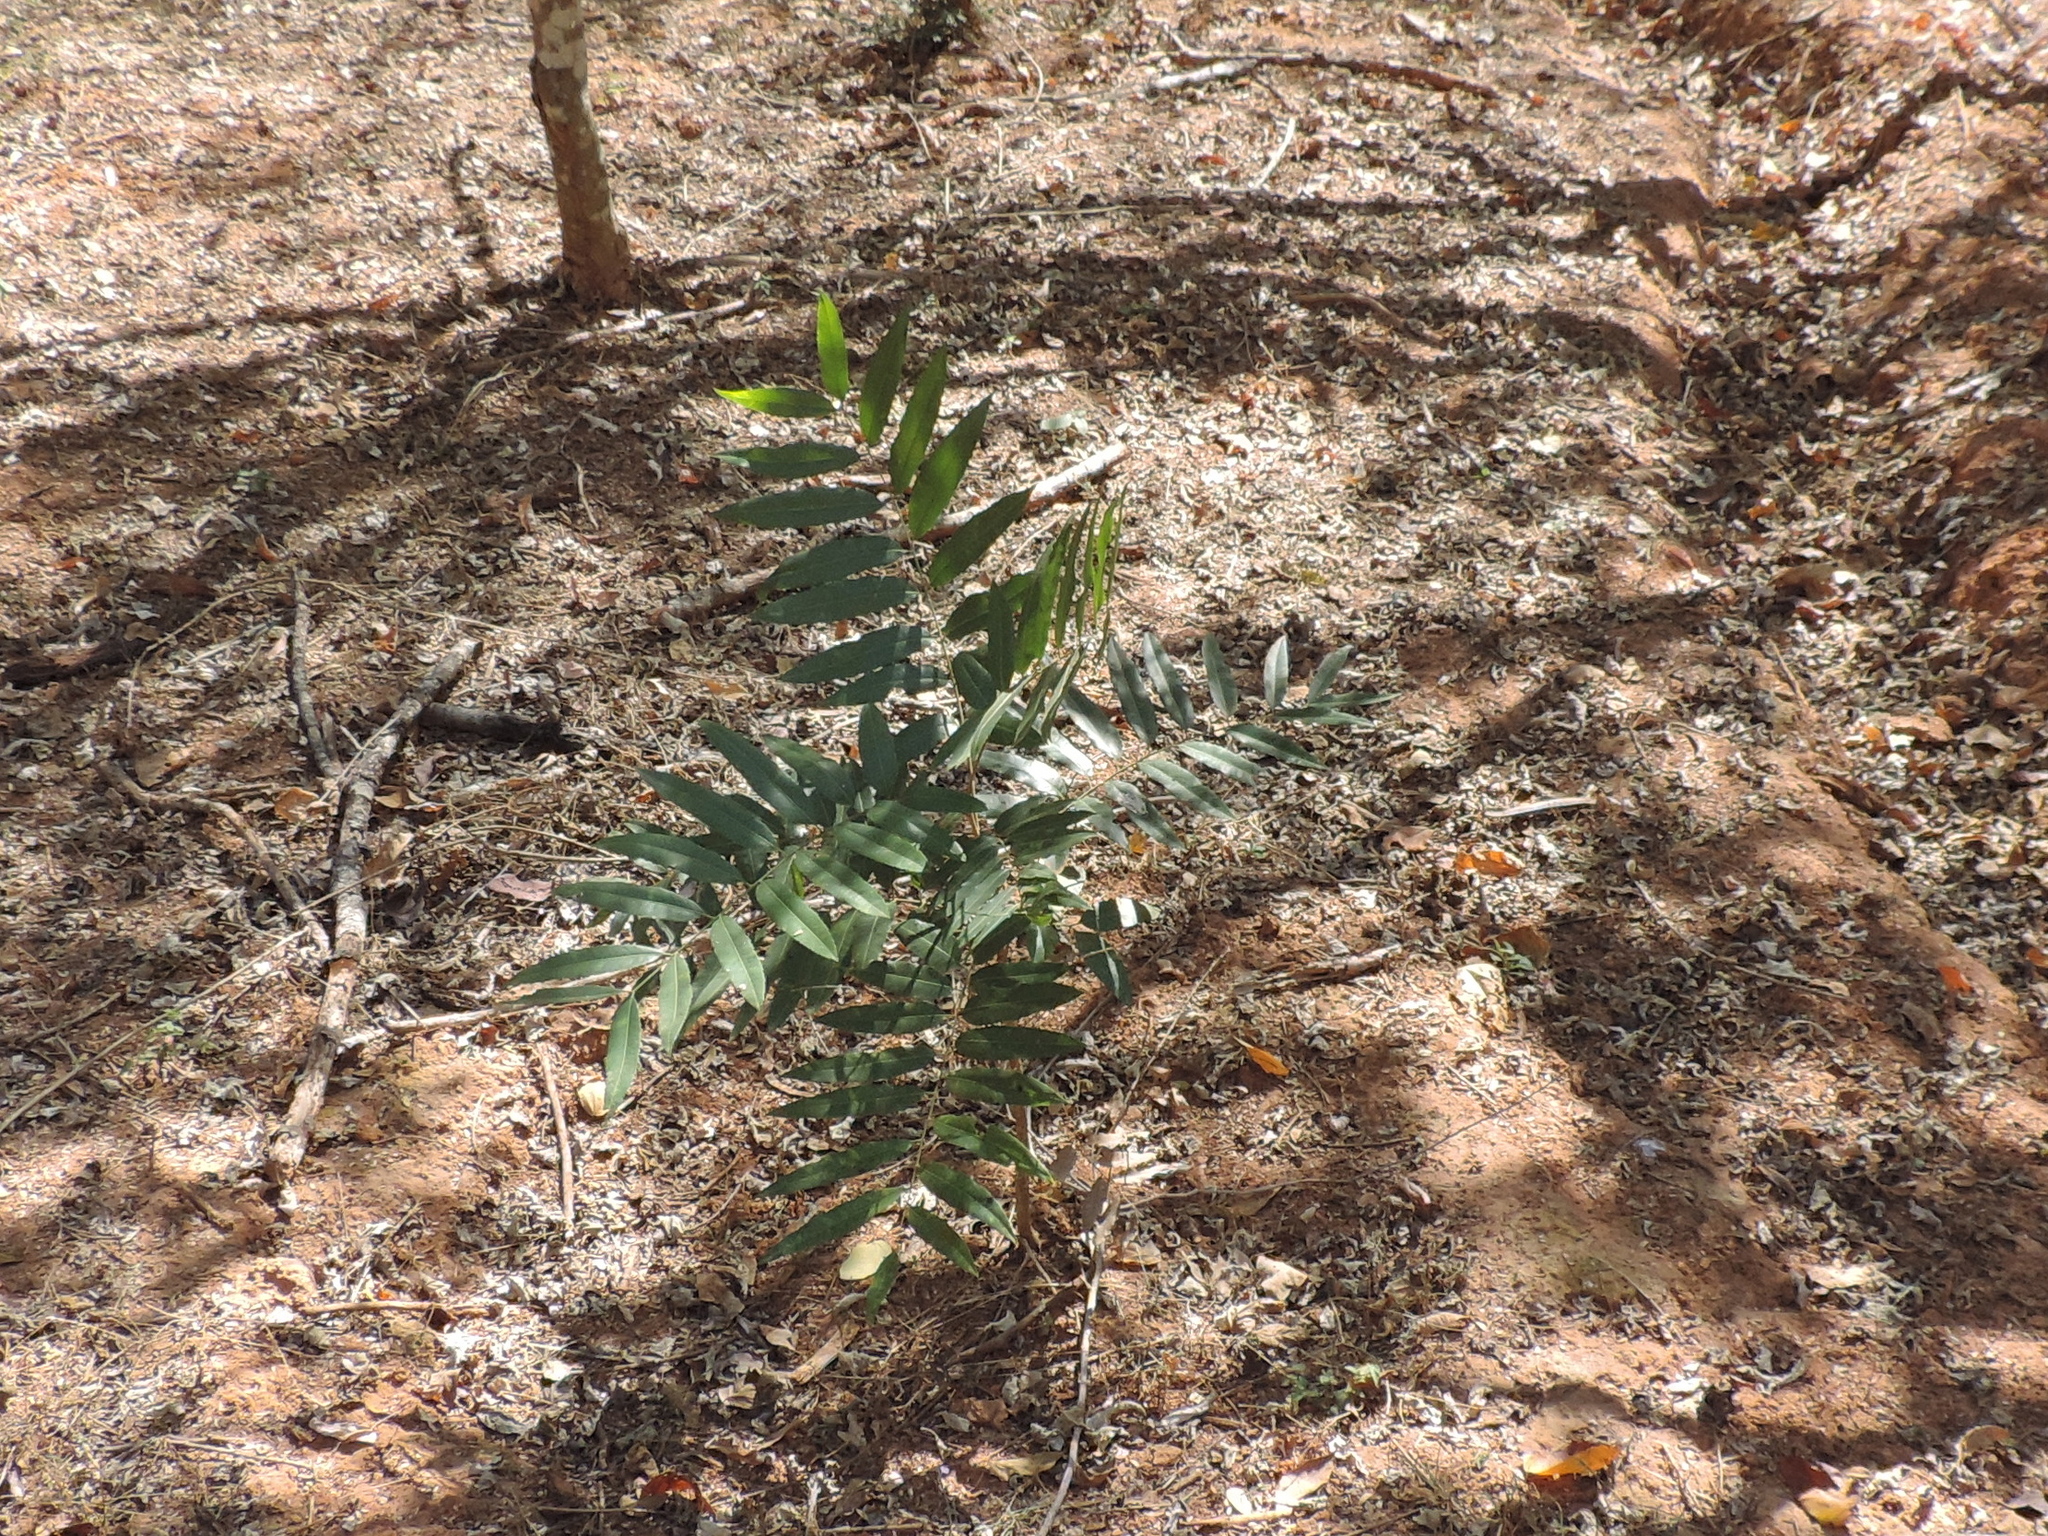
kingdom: Plantae
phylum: Tracheophyta
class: Magnoliopsida
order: Sapindales
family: Sapindaceae
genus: Thouinidium
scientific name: Thouinidium decandrum
